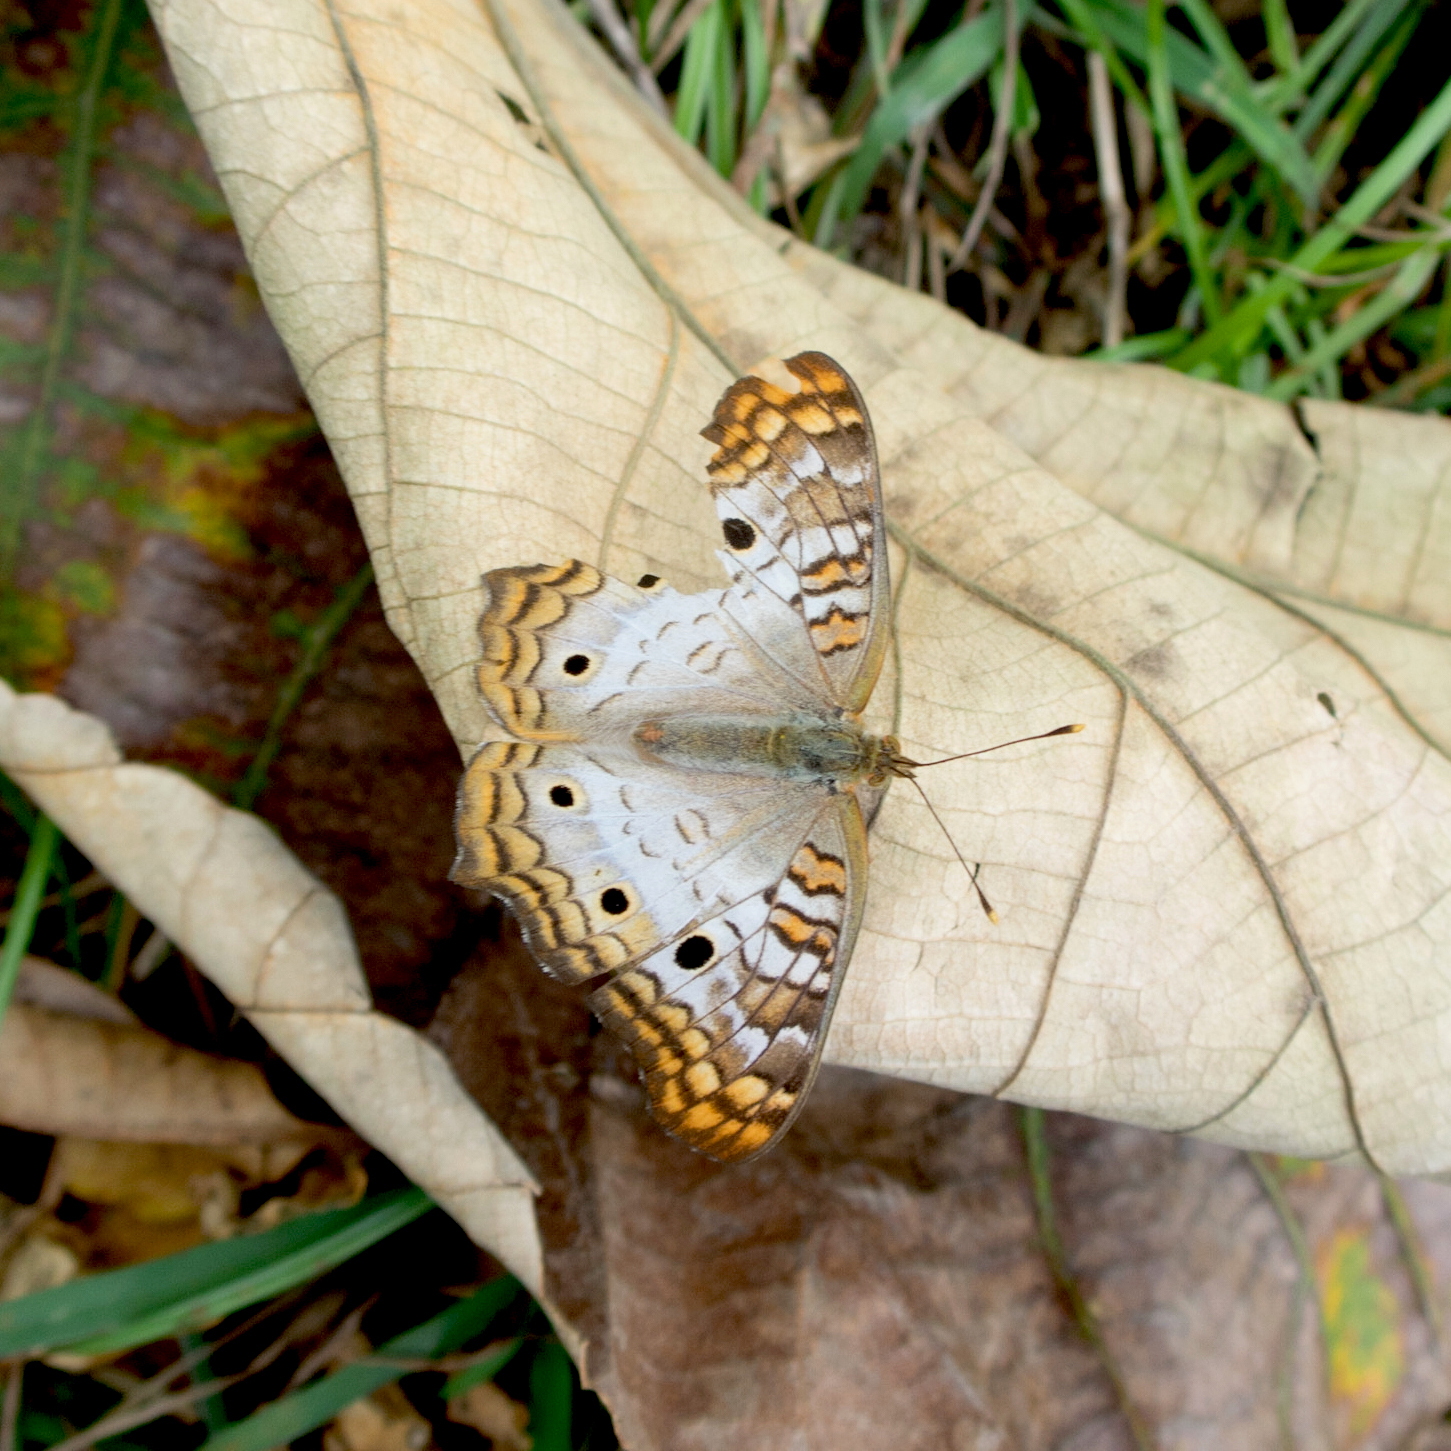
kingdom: Animalia
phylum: Arthropoda
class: Insecta
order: Lepidoptera
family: Nymphalidae
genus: Anartia
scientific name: Anartia jatrophae
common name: White peacock
